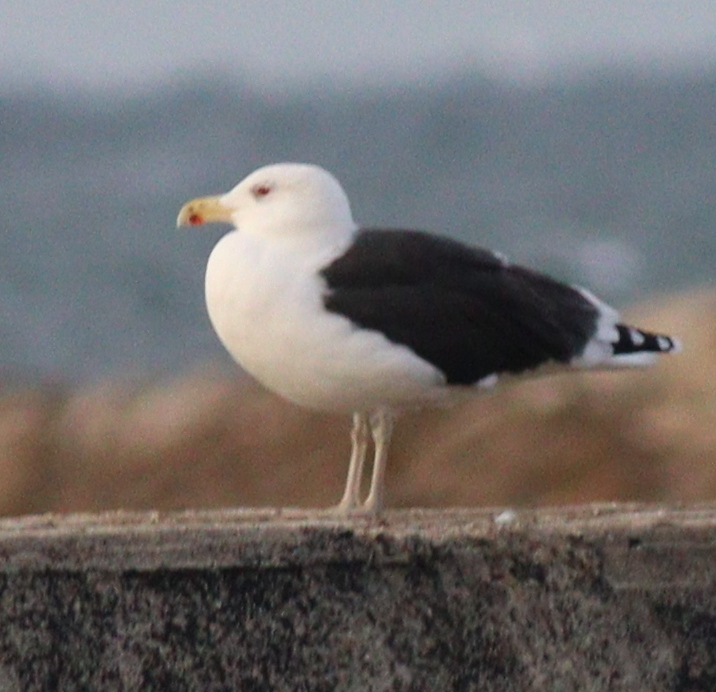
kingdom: Animalia
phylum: Chordata
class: Aves
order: Charadriiformes
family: Laridae
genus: Larus
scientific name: Larus marinus
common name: Great black-backed gull
